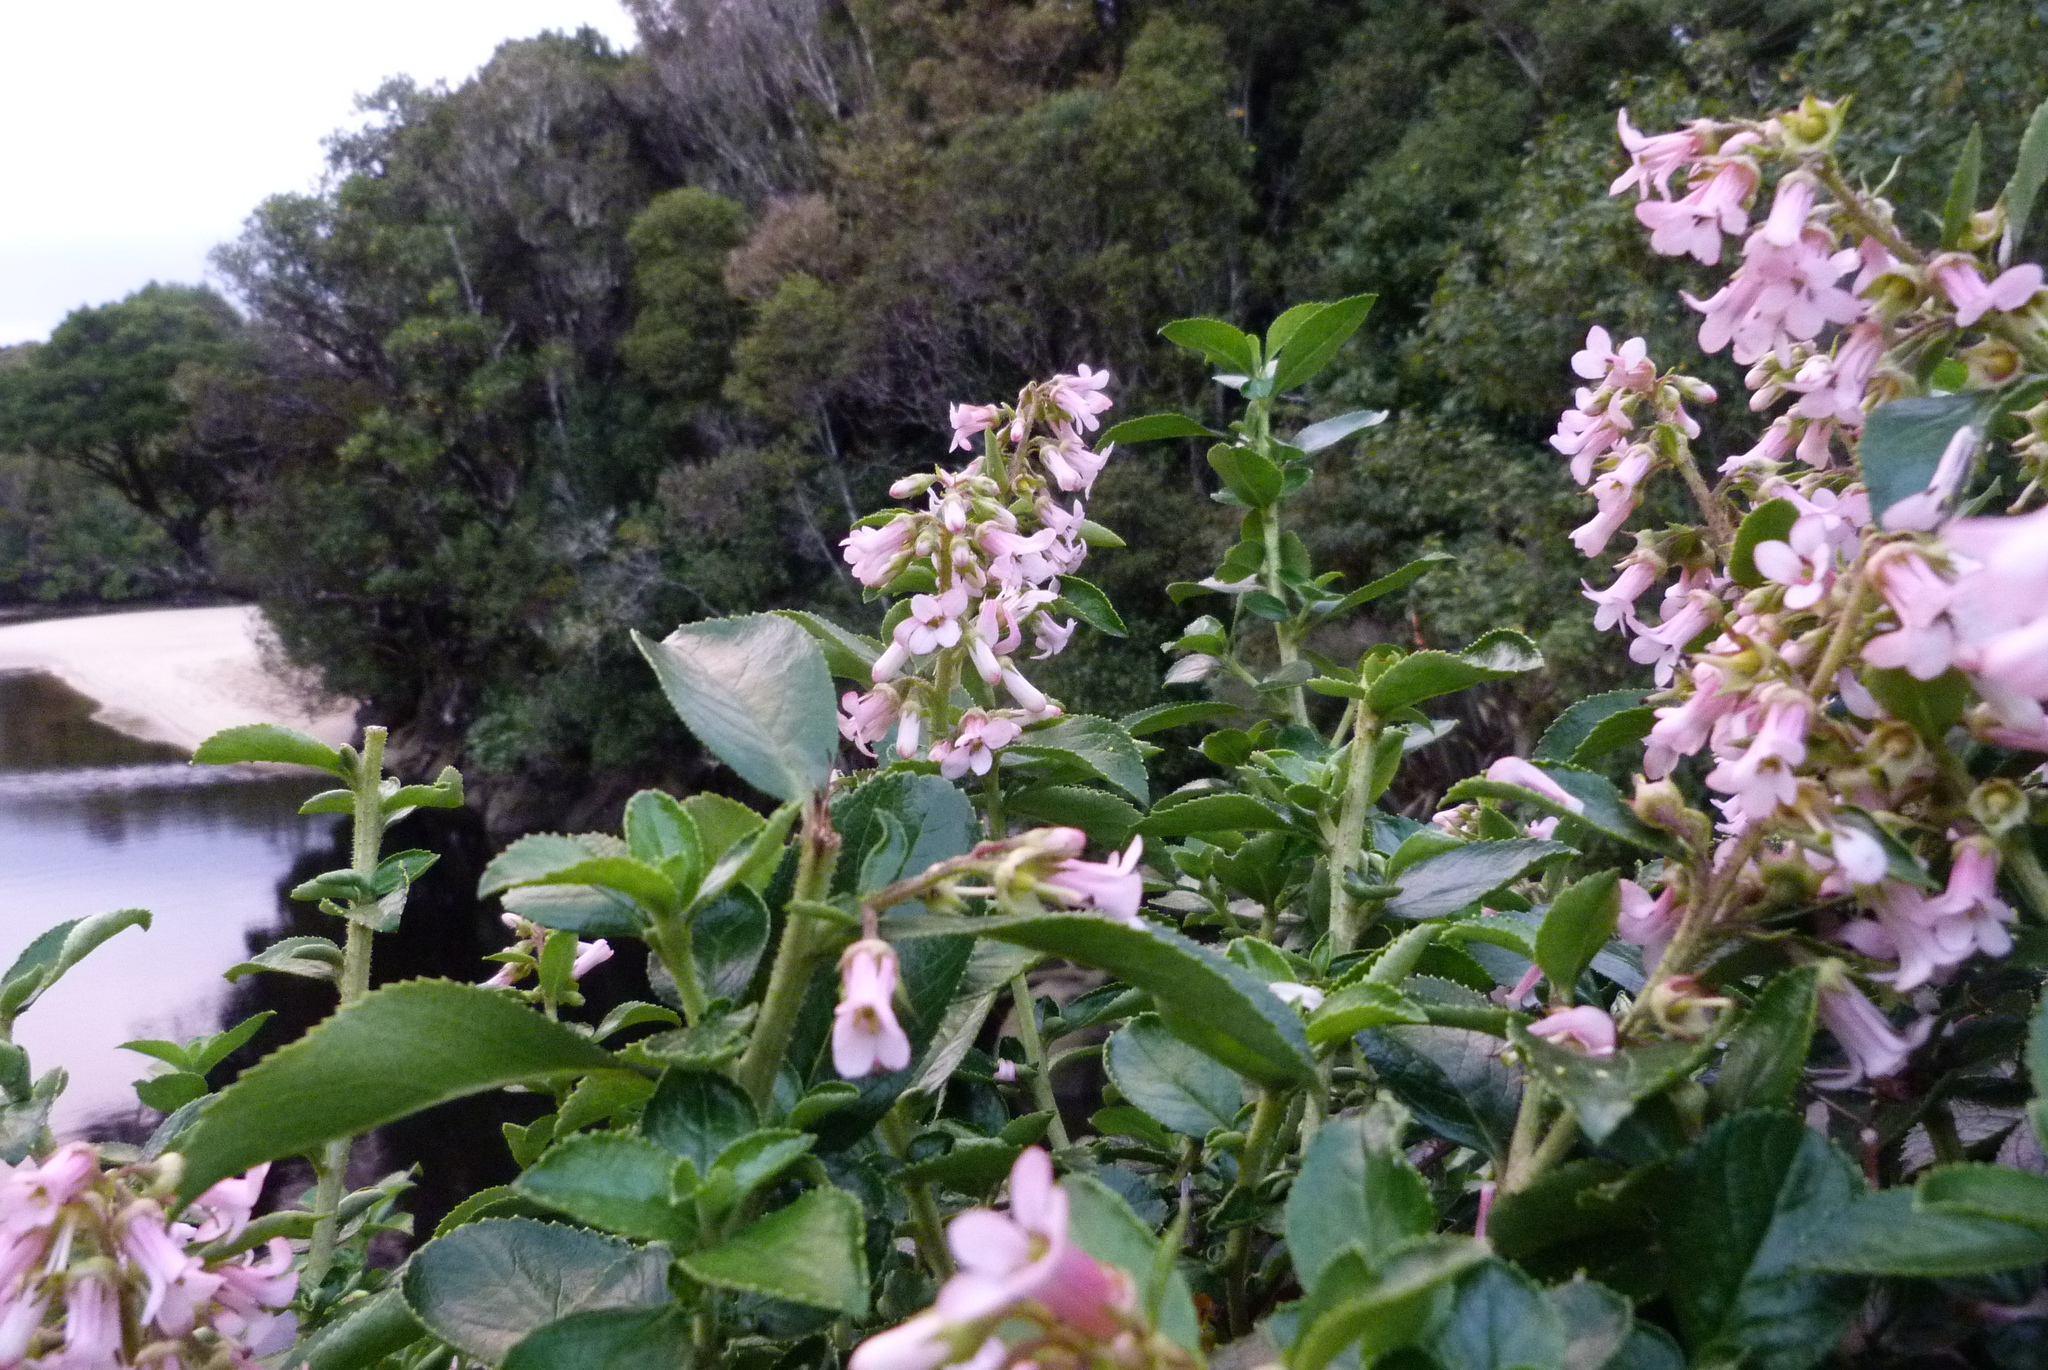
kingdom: Plantae
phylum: Tracheophyta
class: Magnoliopsida
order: Escalloniales
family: Escalloniaceae
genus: Escallonia
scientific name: Escallonia rubra
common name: Redclaws
